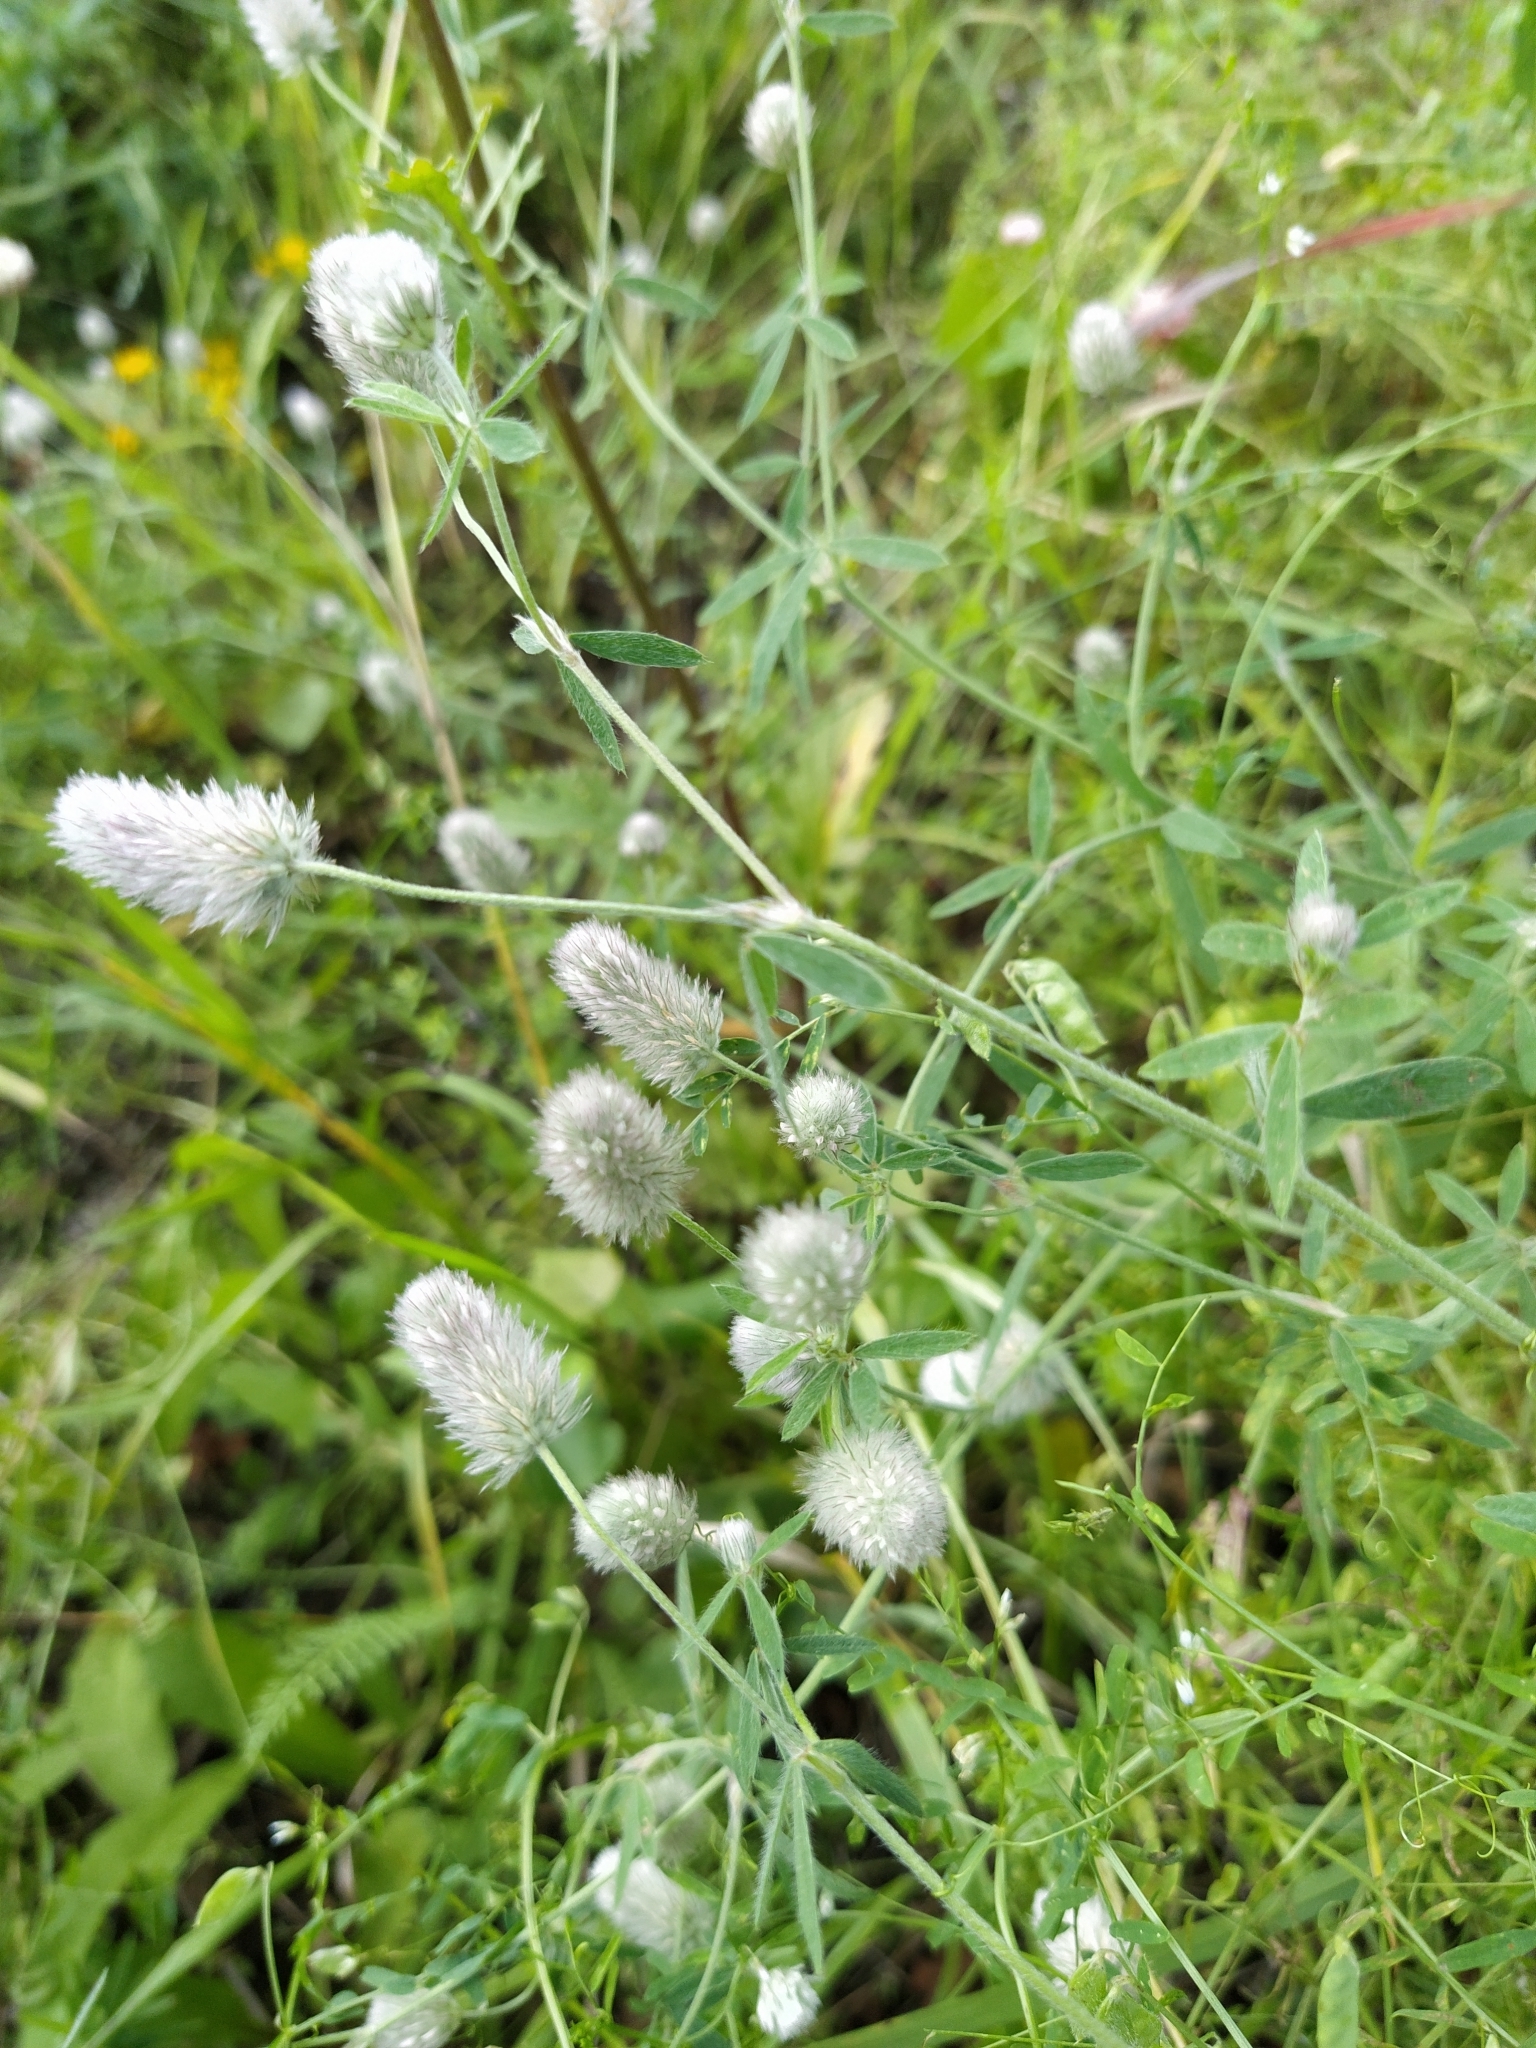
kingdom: Plantae
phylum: Tracheophyta
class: Magnoliopsida
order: Fabales
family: Fabaceae
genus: Trifolium
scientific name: Trifolium arvense
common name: Hare's-foot clover
